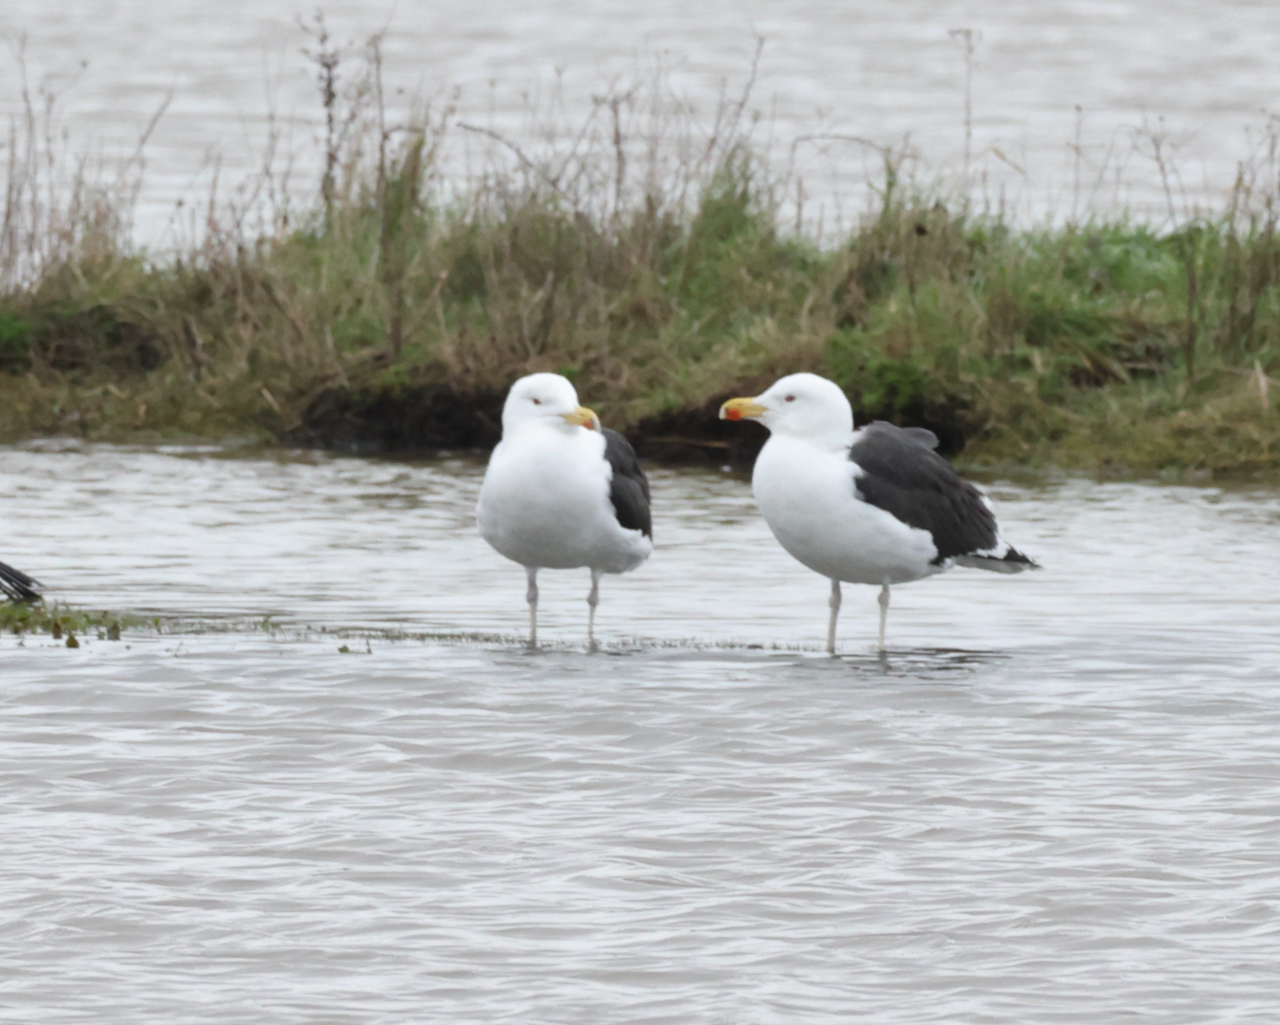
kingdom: Animalia
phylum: Chordata
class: Aves
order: Charadriiformes
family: Laridae
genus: Larus
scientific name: Larus marinus
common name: Great black-backed gull
